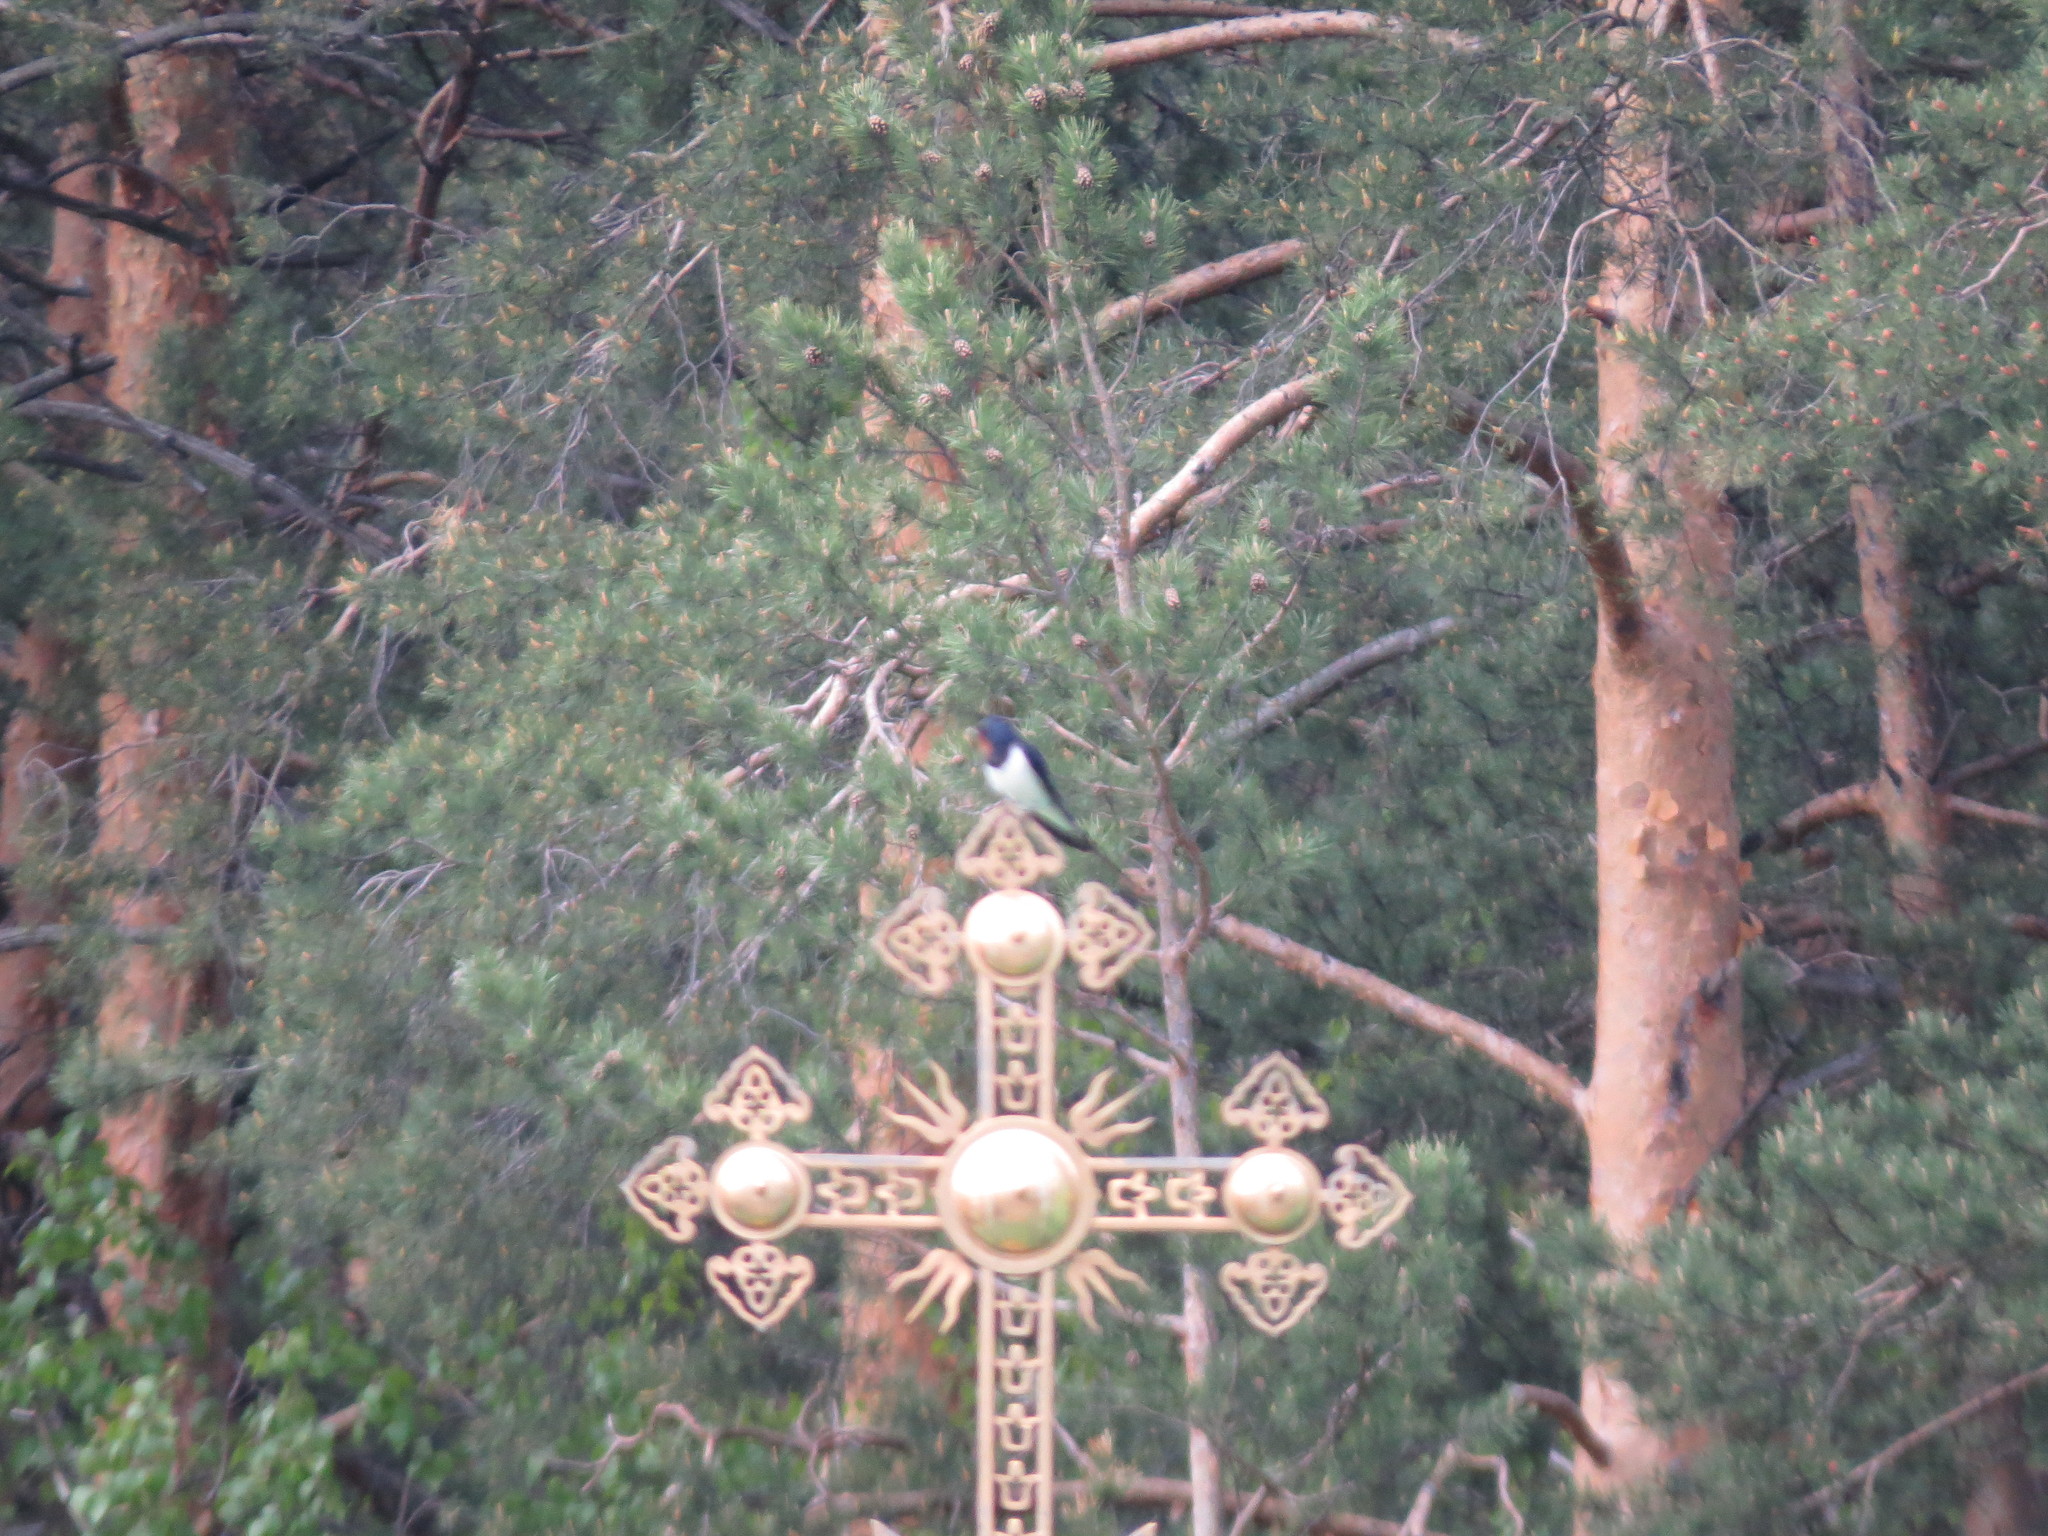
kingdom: Animalia
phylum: Chordata
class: Aves
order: Passeriformes
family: Hirundinidae
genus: Hirundo
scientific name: Hirundo rustica
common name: Barn swallow
